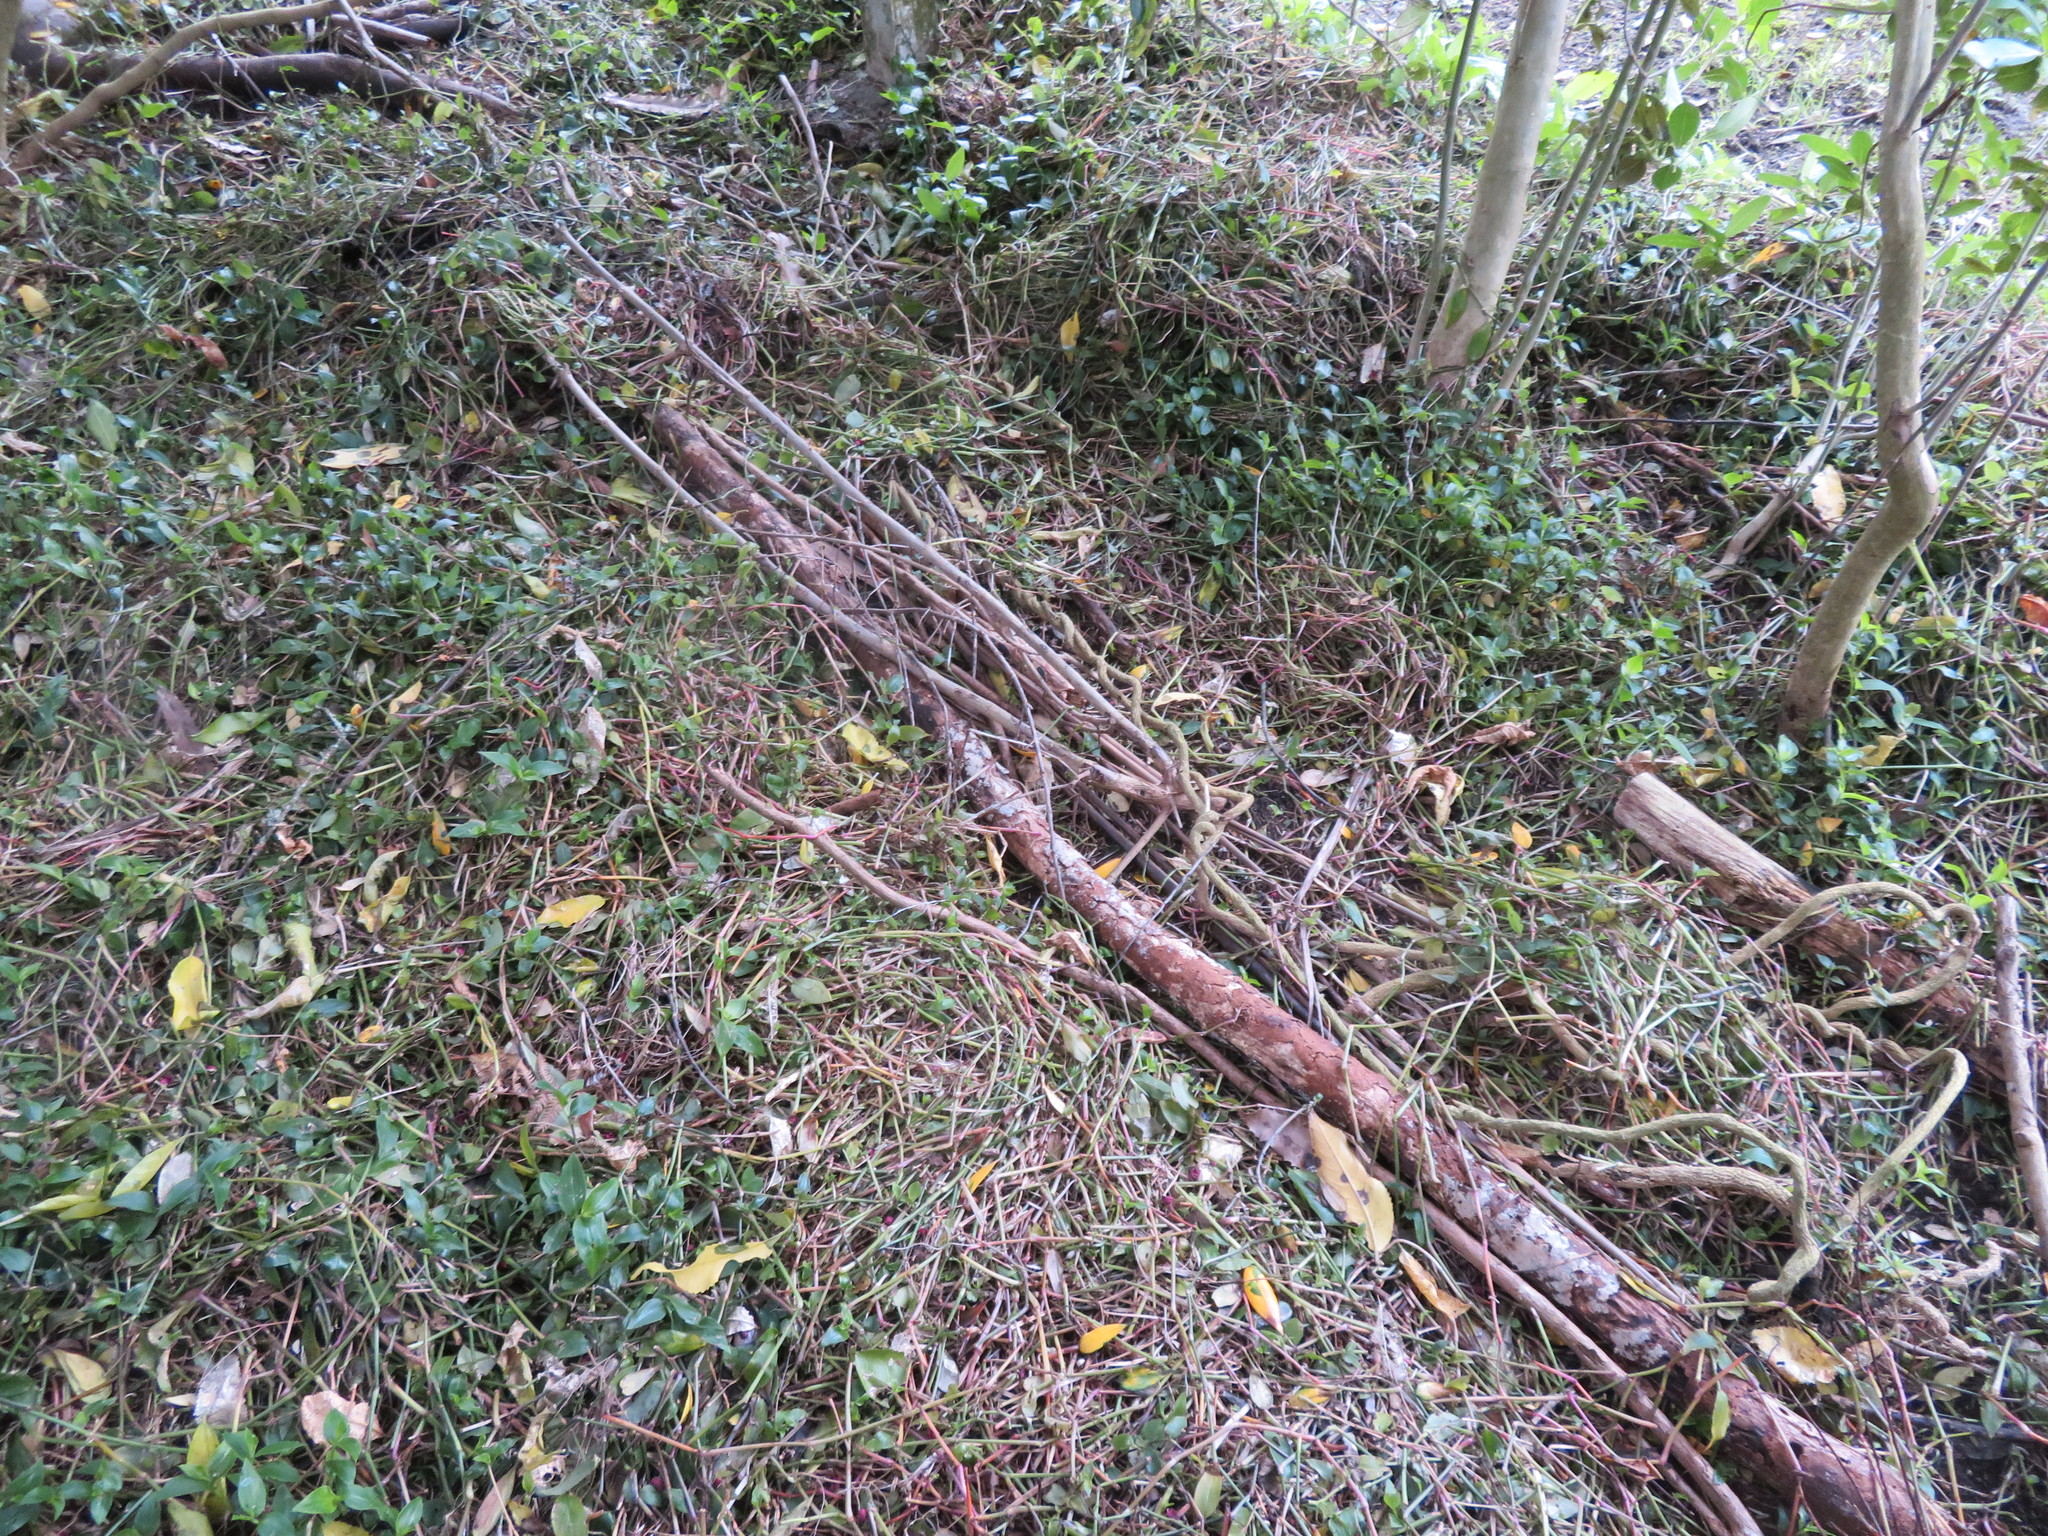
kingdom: Plantae
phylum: Tracheophyta
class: Liliopsida
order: Commelinales
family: Commelinaceae
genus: Tradescantia
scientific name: Tradescantia fluminensis
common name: Wandering-jew
